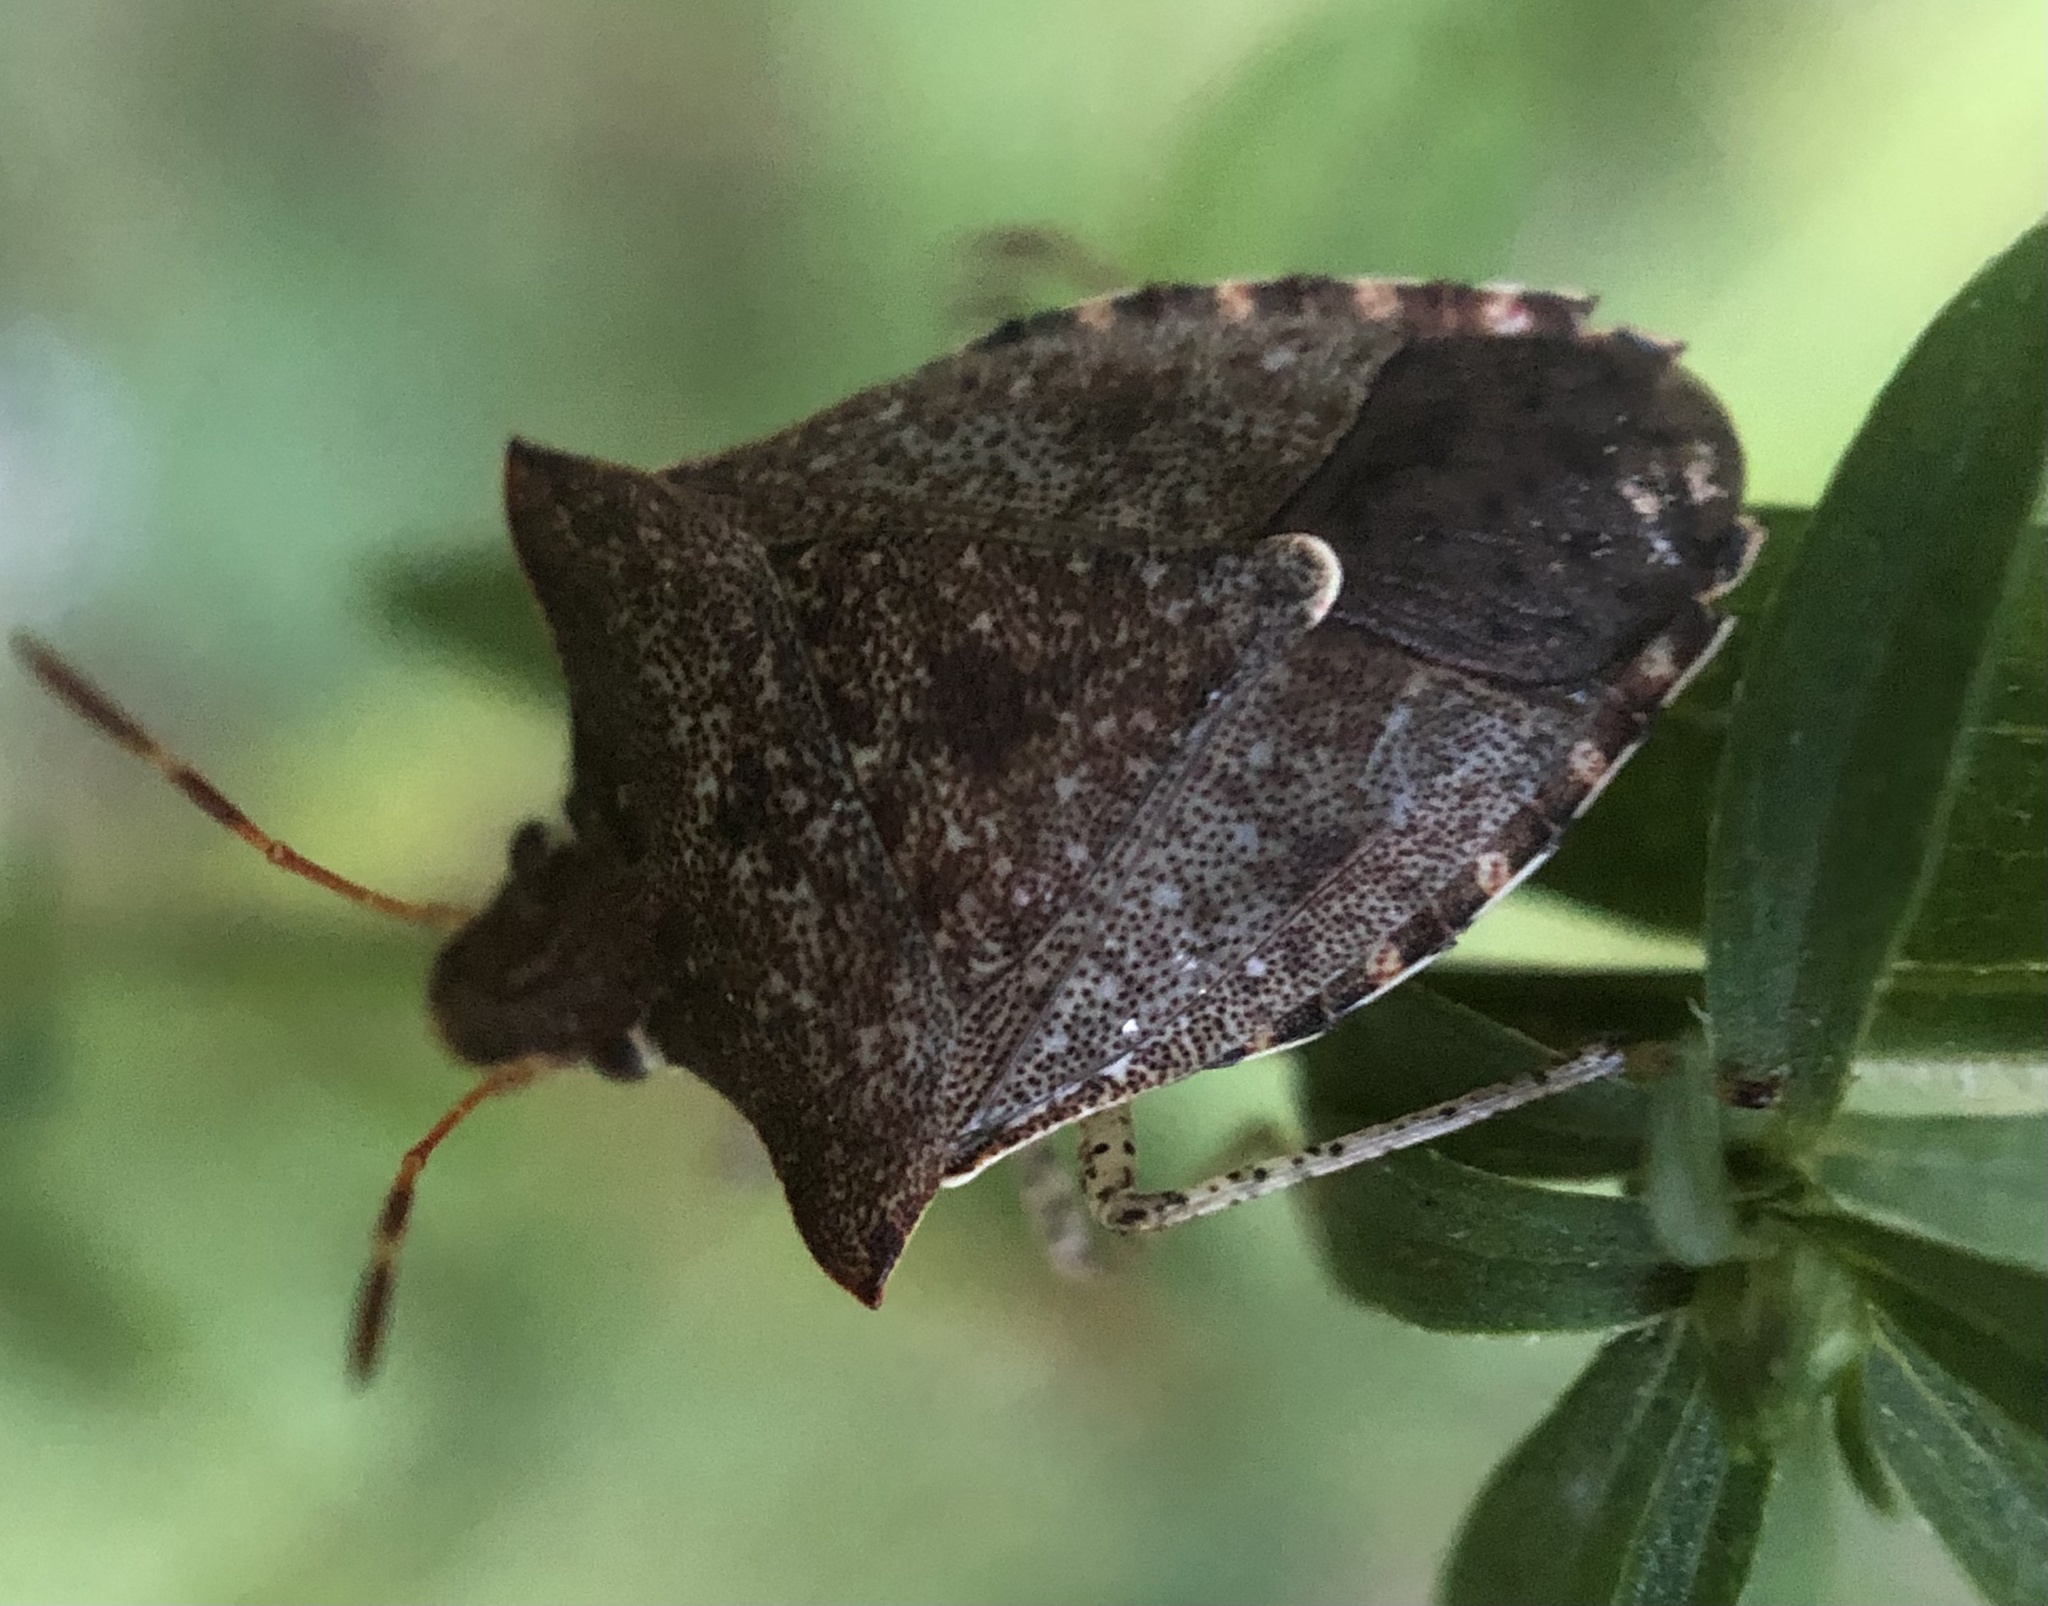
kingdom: Animalia
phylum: Arthropoda
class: Insecta
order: Hemiptera
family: Pentatomidae
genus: Euschistus
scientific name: Euschistus tristigmus
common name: Dusky stink bug
